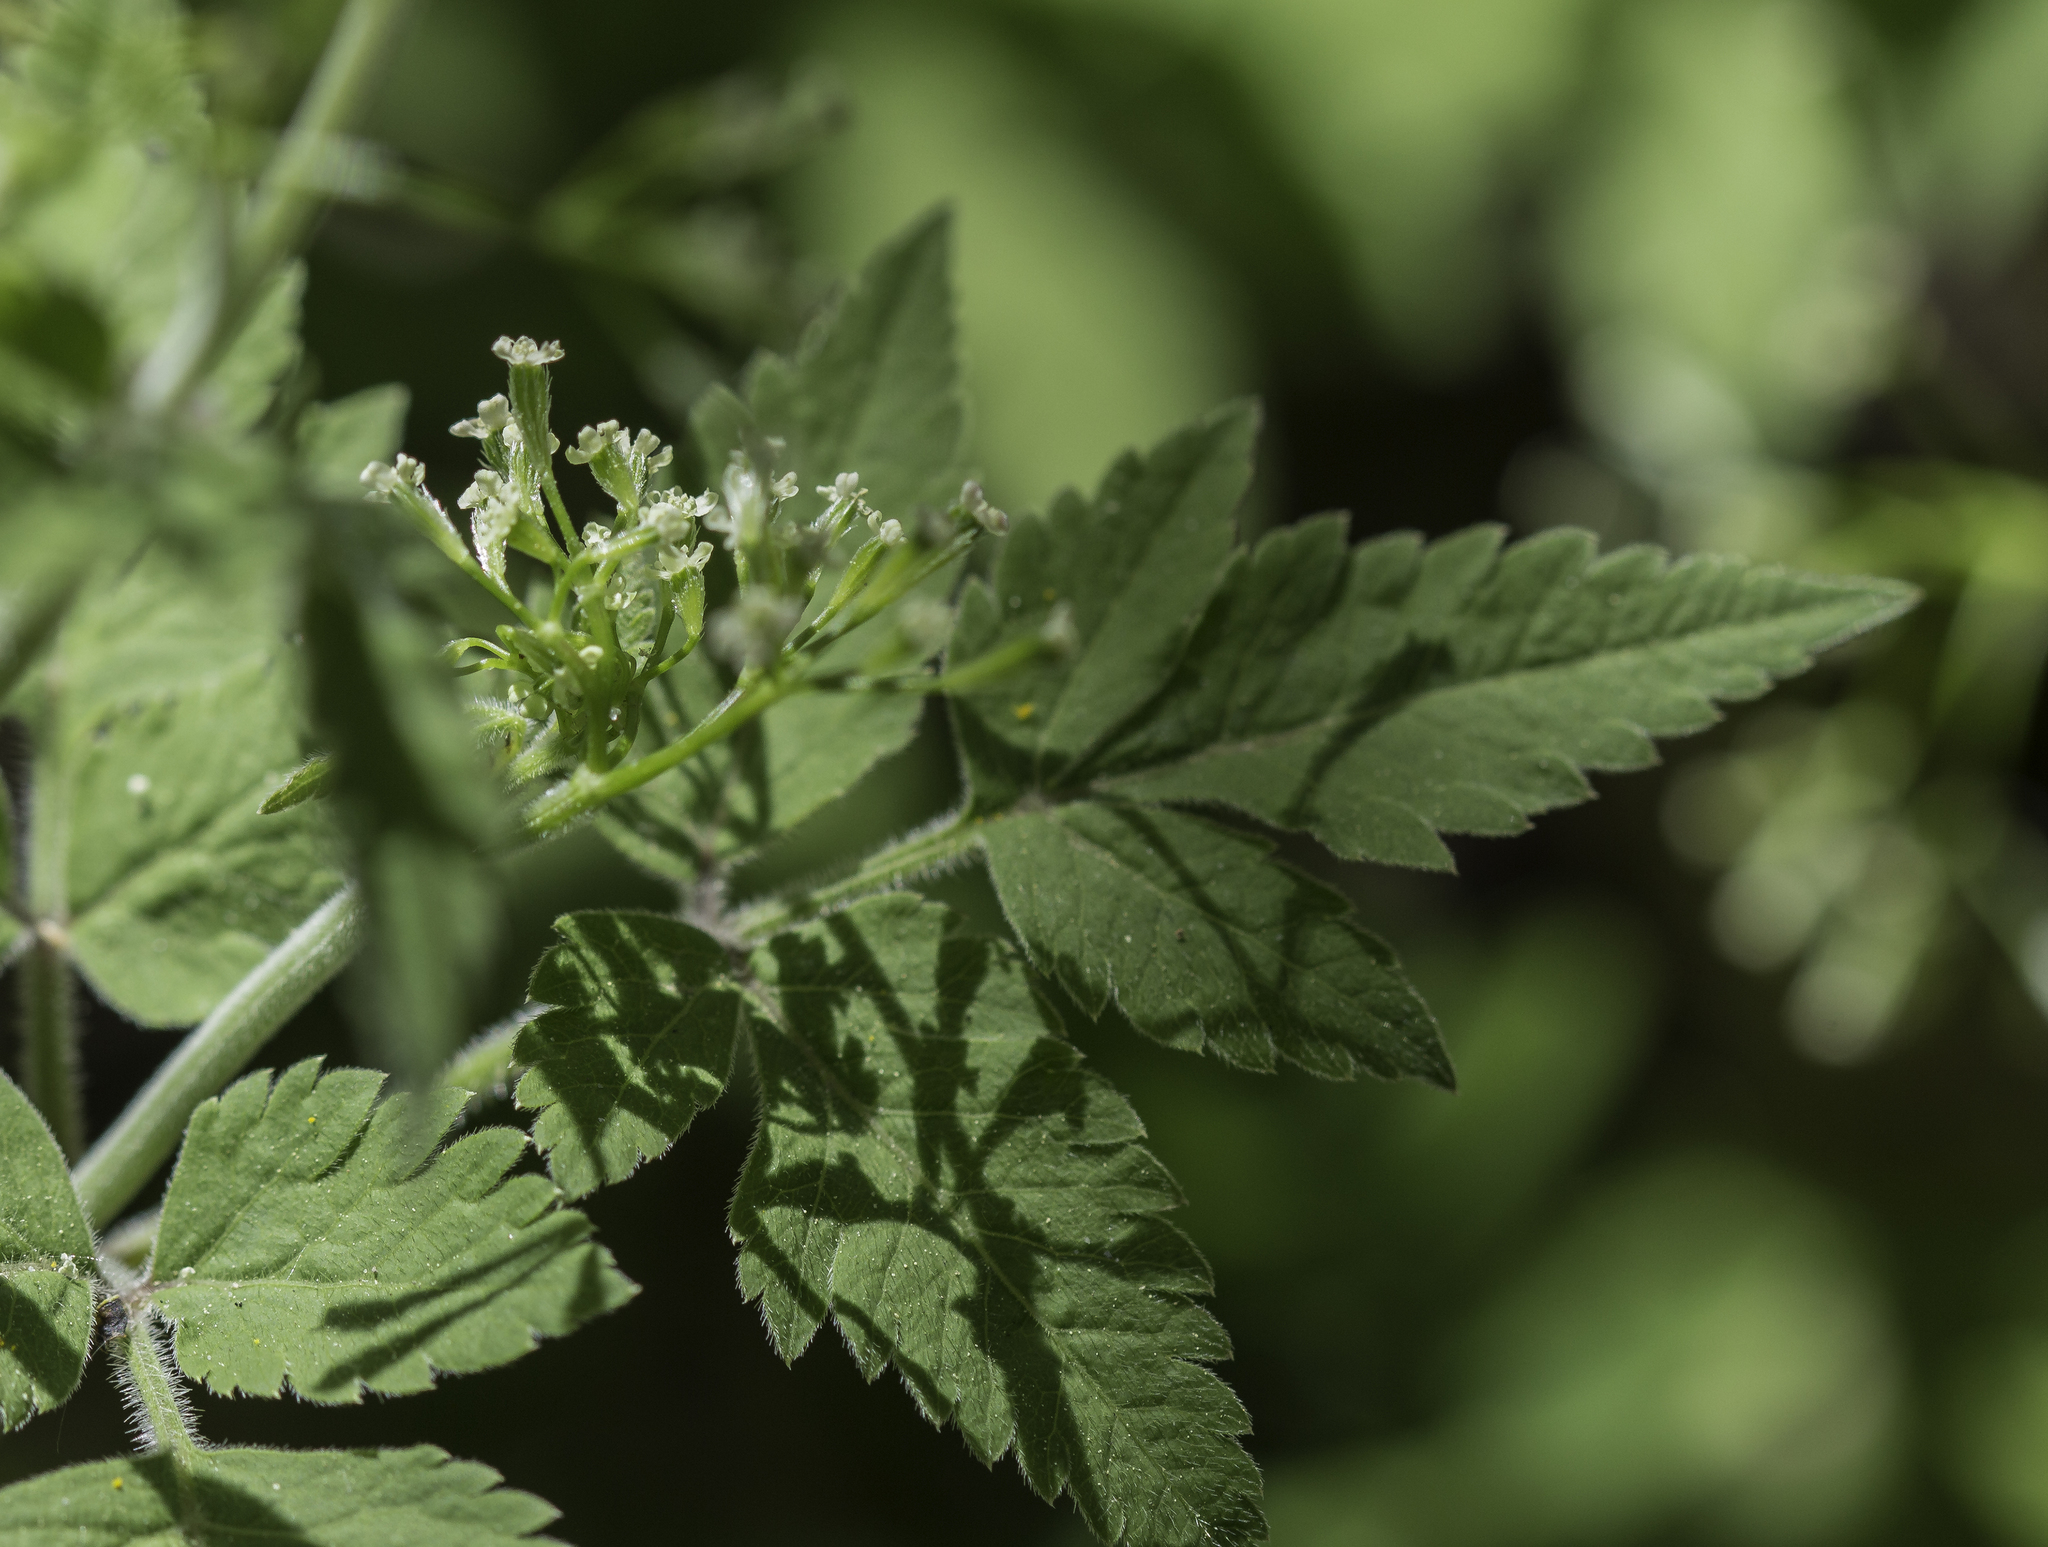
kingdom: Plantae
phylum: Tracheophyta
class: Magnoliopsida
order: Apiales
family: Apiaceae
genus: Osmorhiza
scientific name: Osmorhiza depauperata
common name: Blunt sweet cicely
